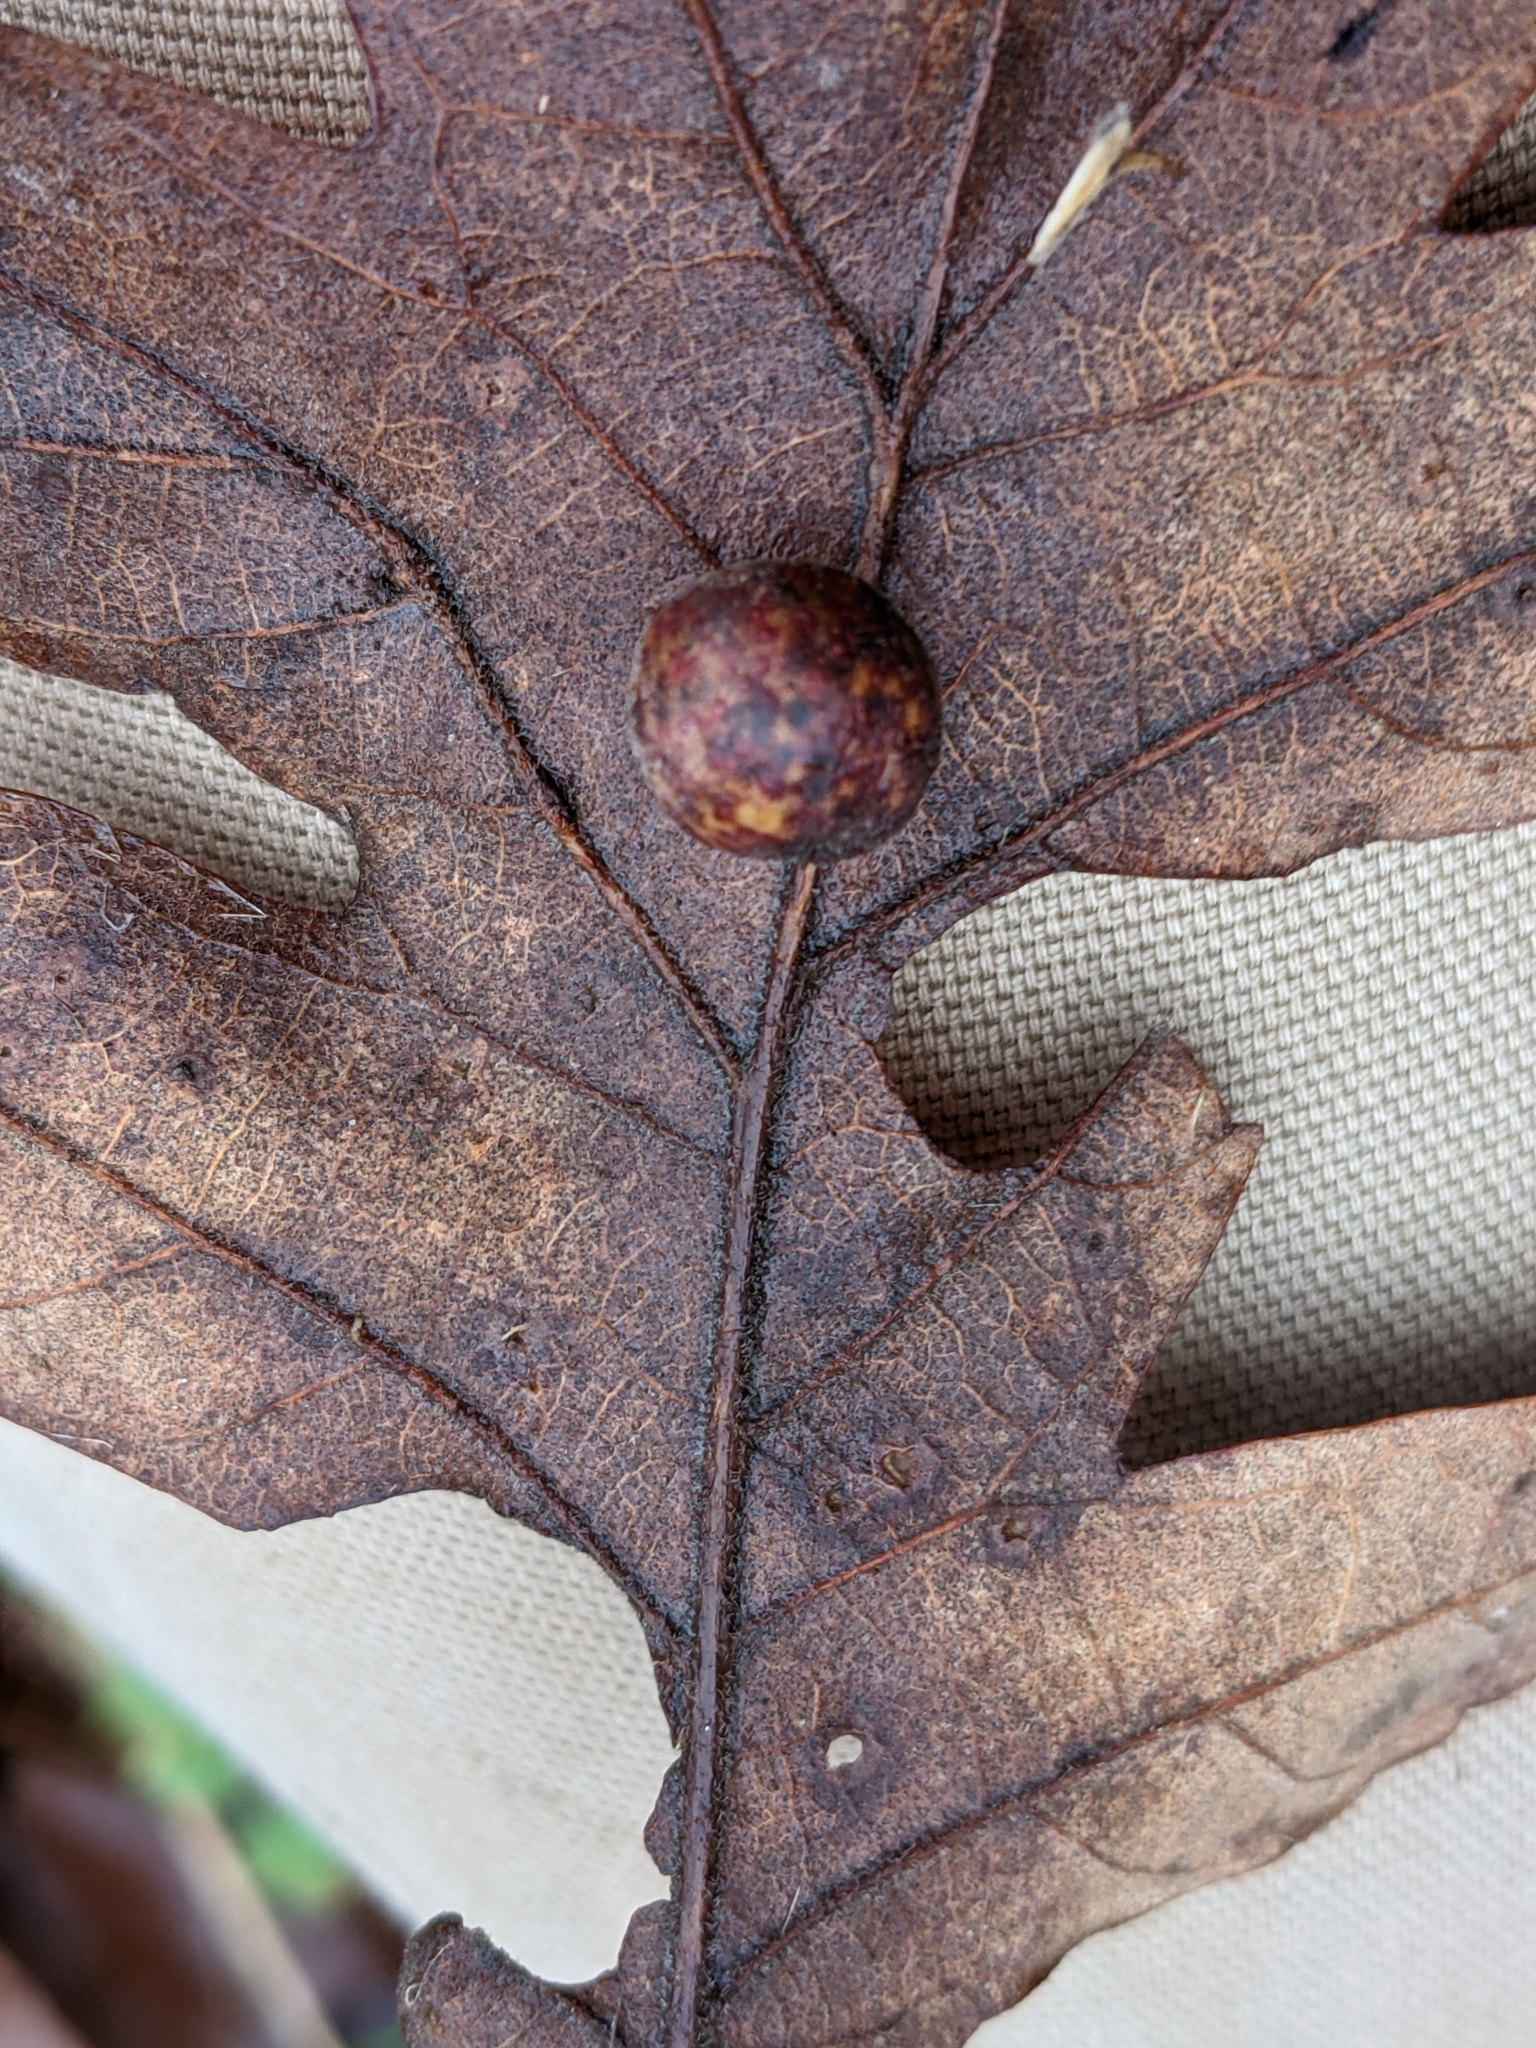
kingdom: Animalia
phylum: Arthropoda
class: Insecta
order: Hymenoptera
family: Cynipidae
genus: Cynips
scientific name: Cynips
